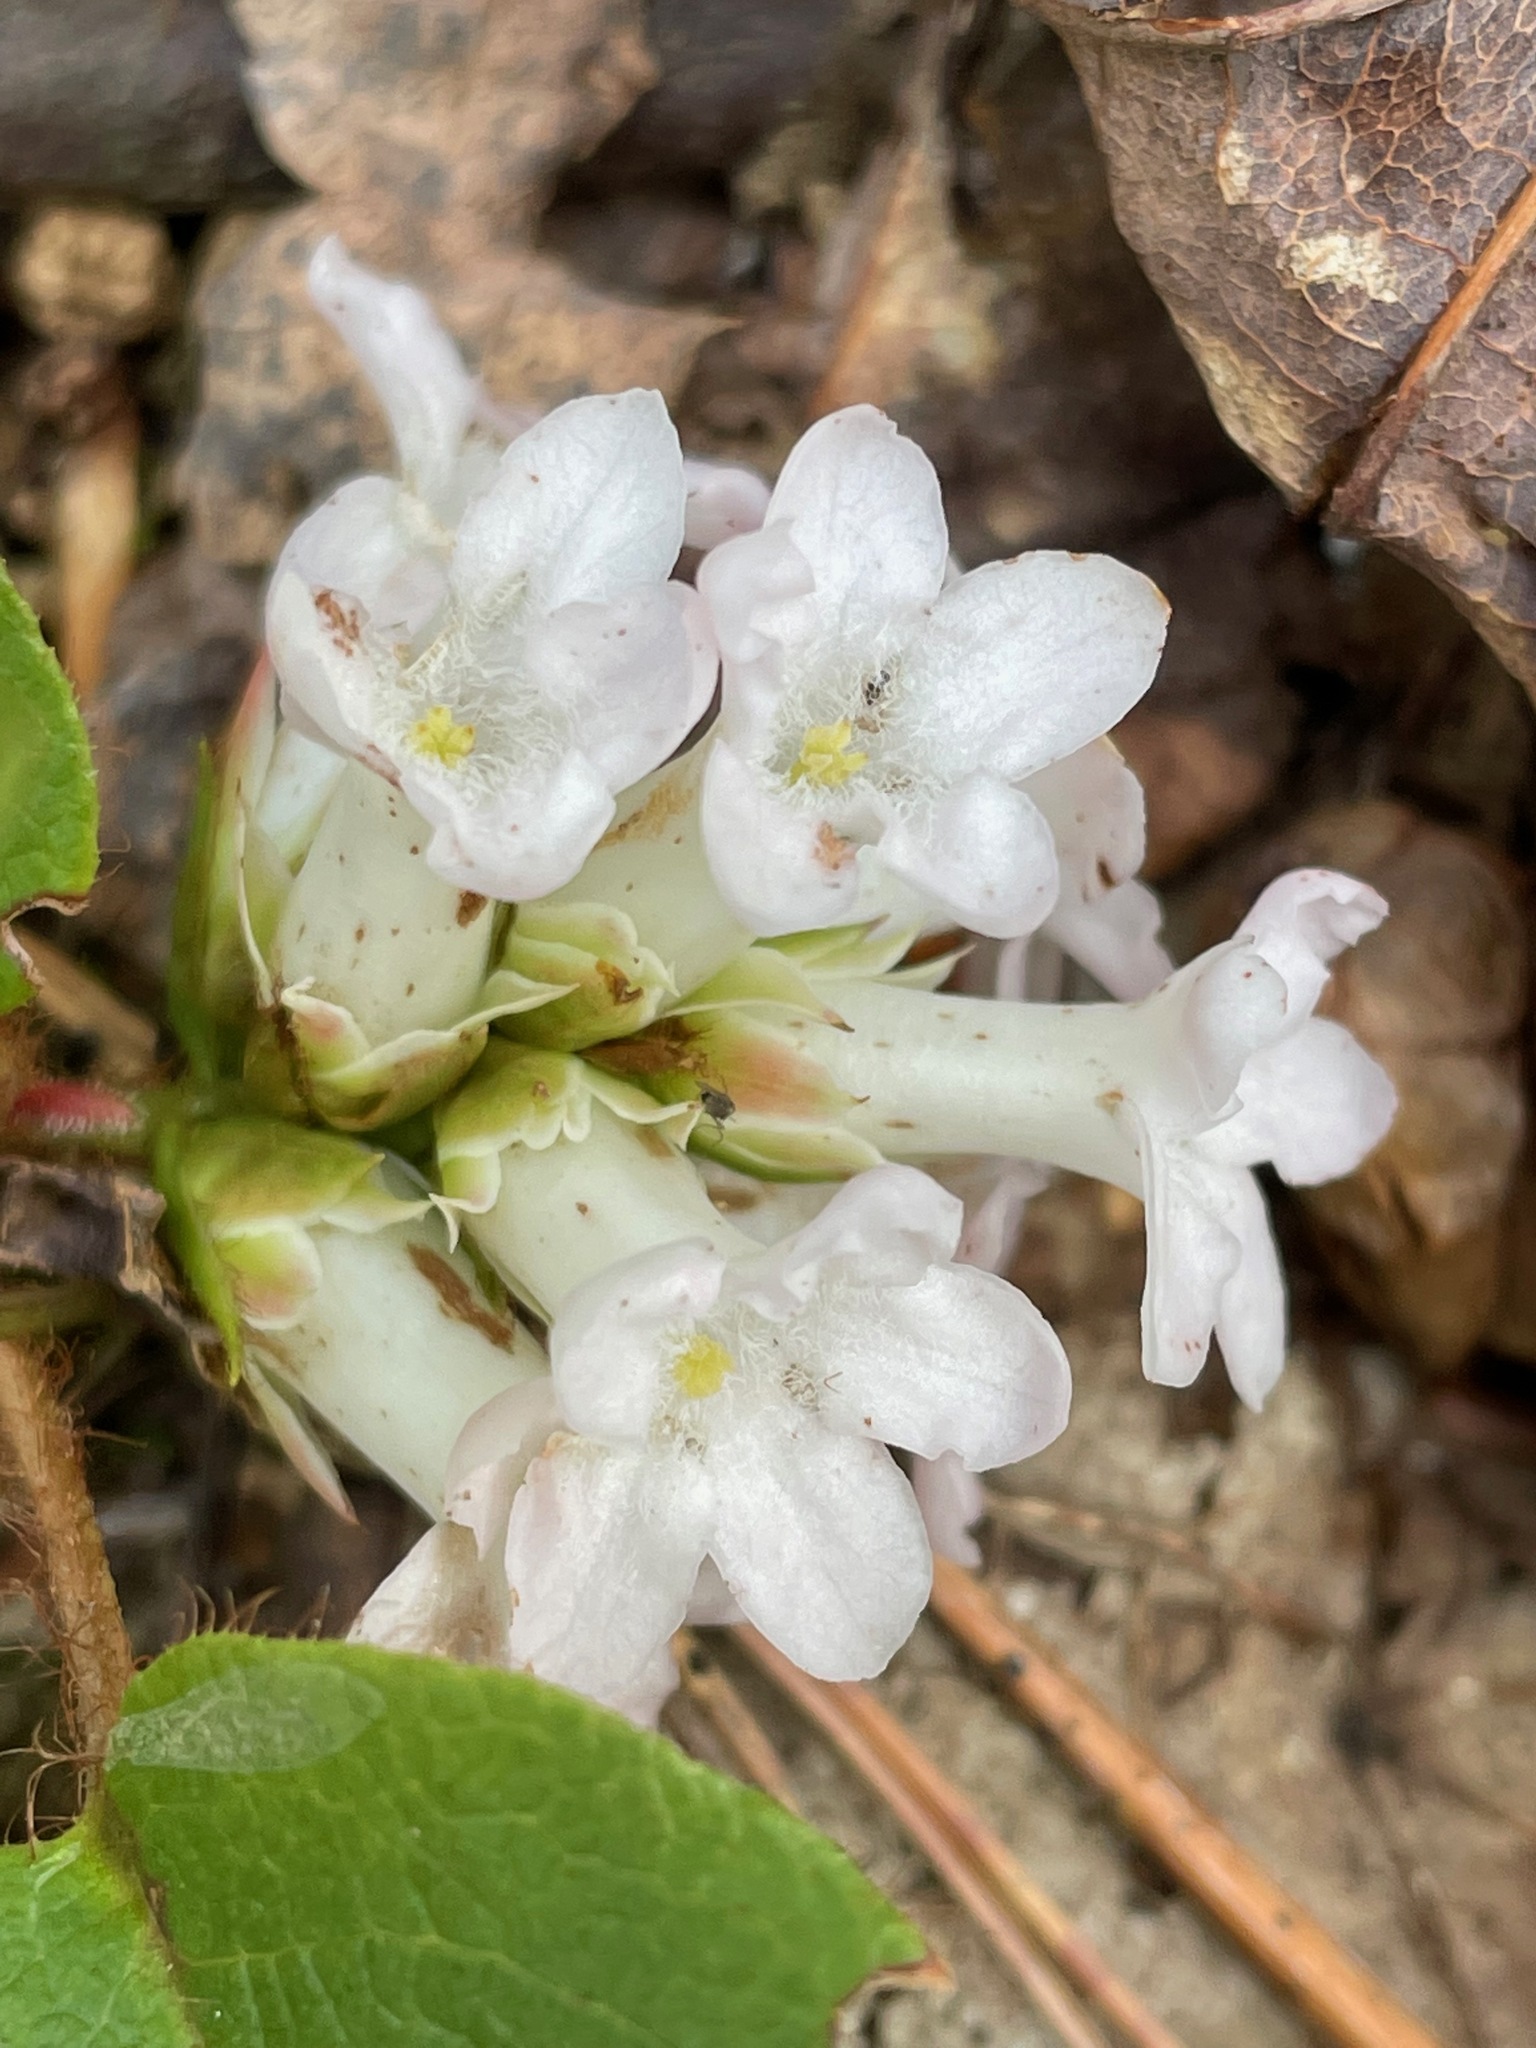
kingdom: Plantae
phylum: Tracheophyta
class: Magnoliopsida
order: Ericales
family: Ericaceae
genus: Epigaea
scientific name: Epigaea repens
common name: Gravelroot
